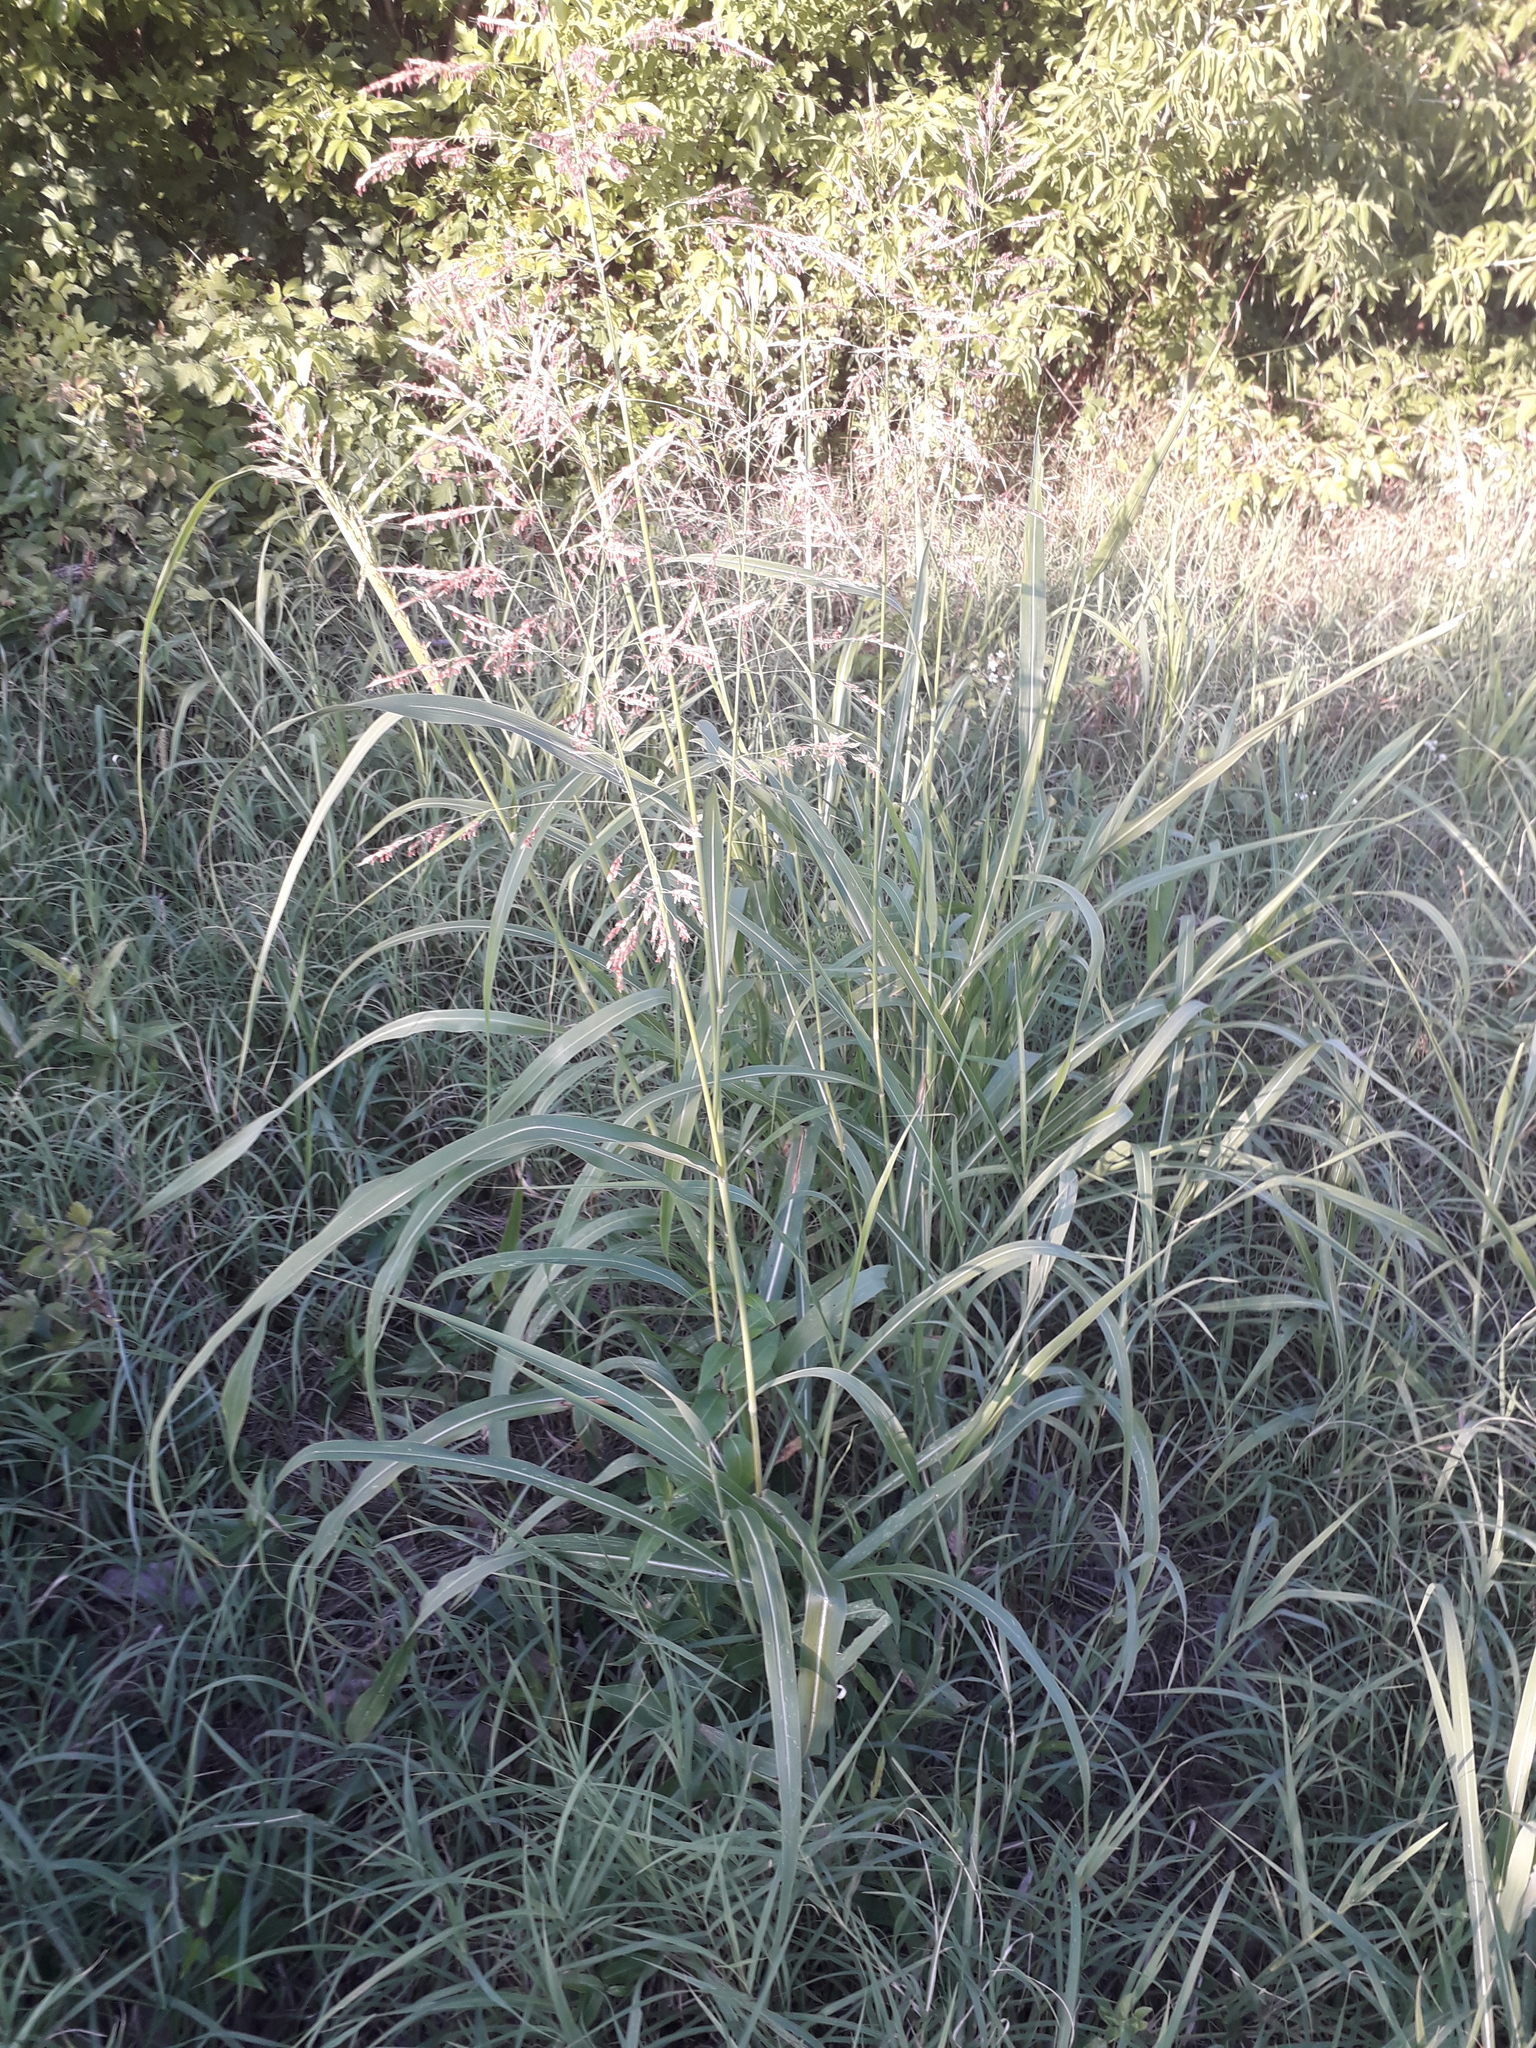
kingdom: Plantae
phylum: Tracheophyta
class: Liliopsida
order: Poales
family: Poaceae
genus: Sorghum
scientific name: Sorghum halepense
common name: Johnson-grass
